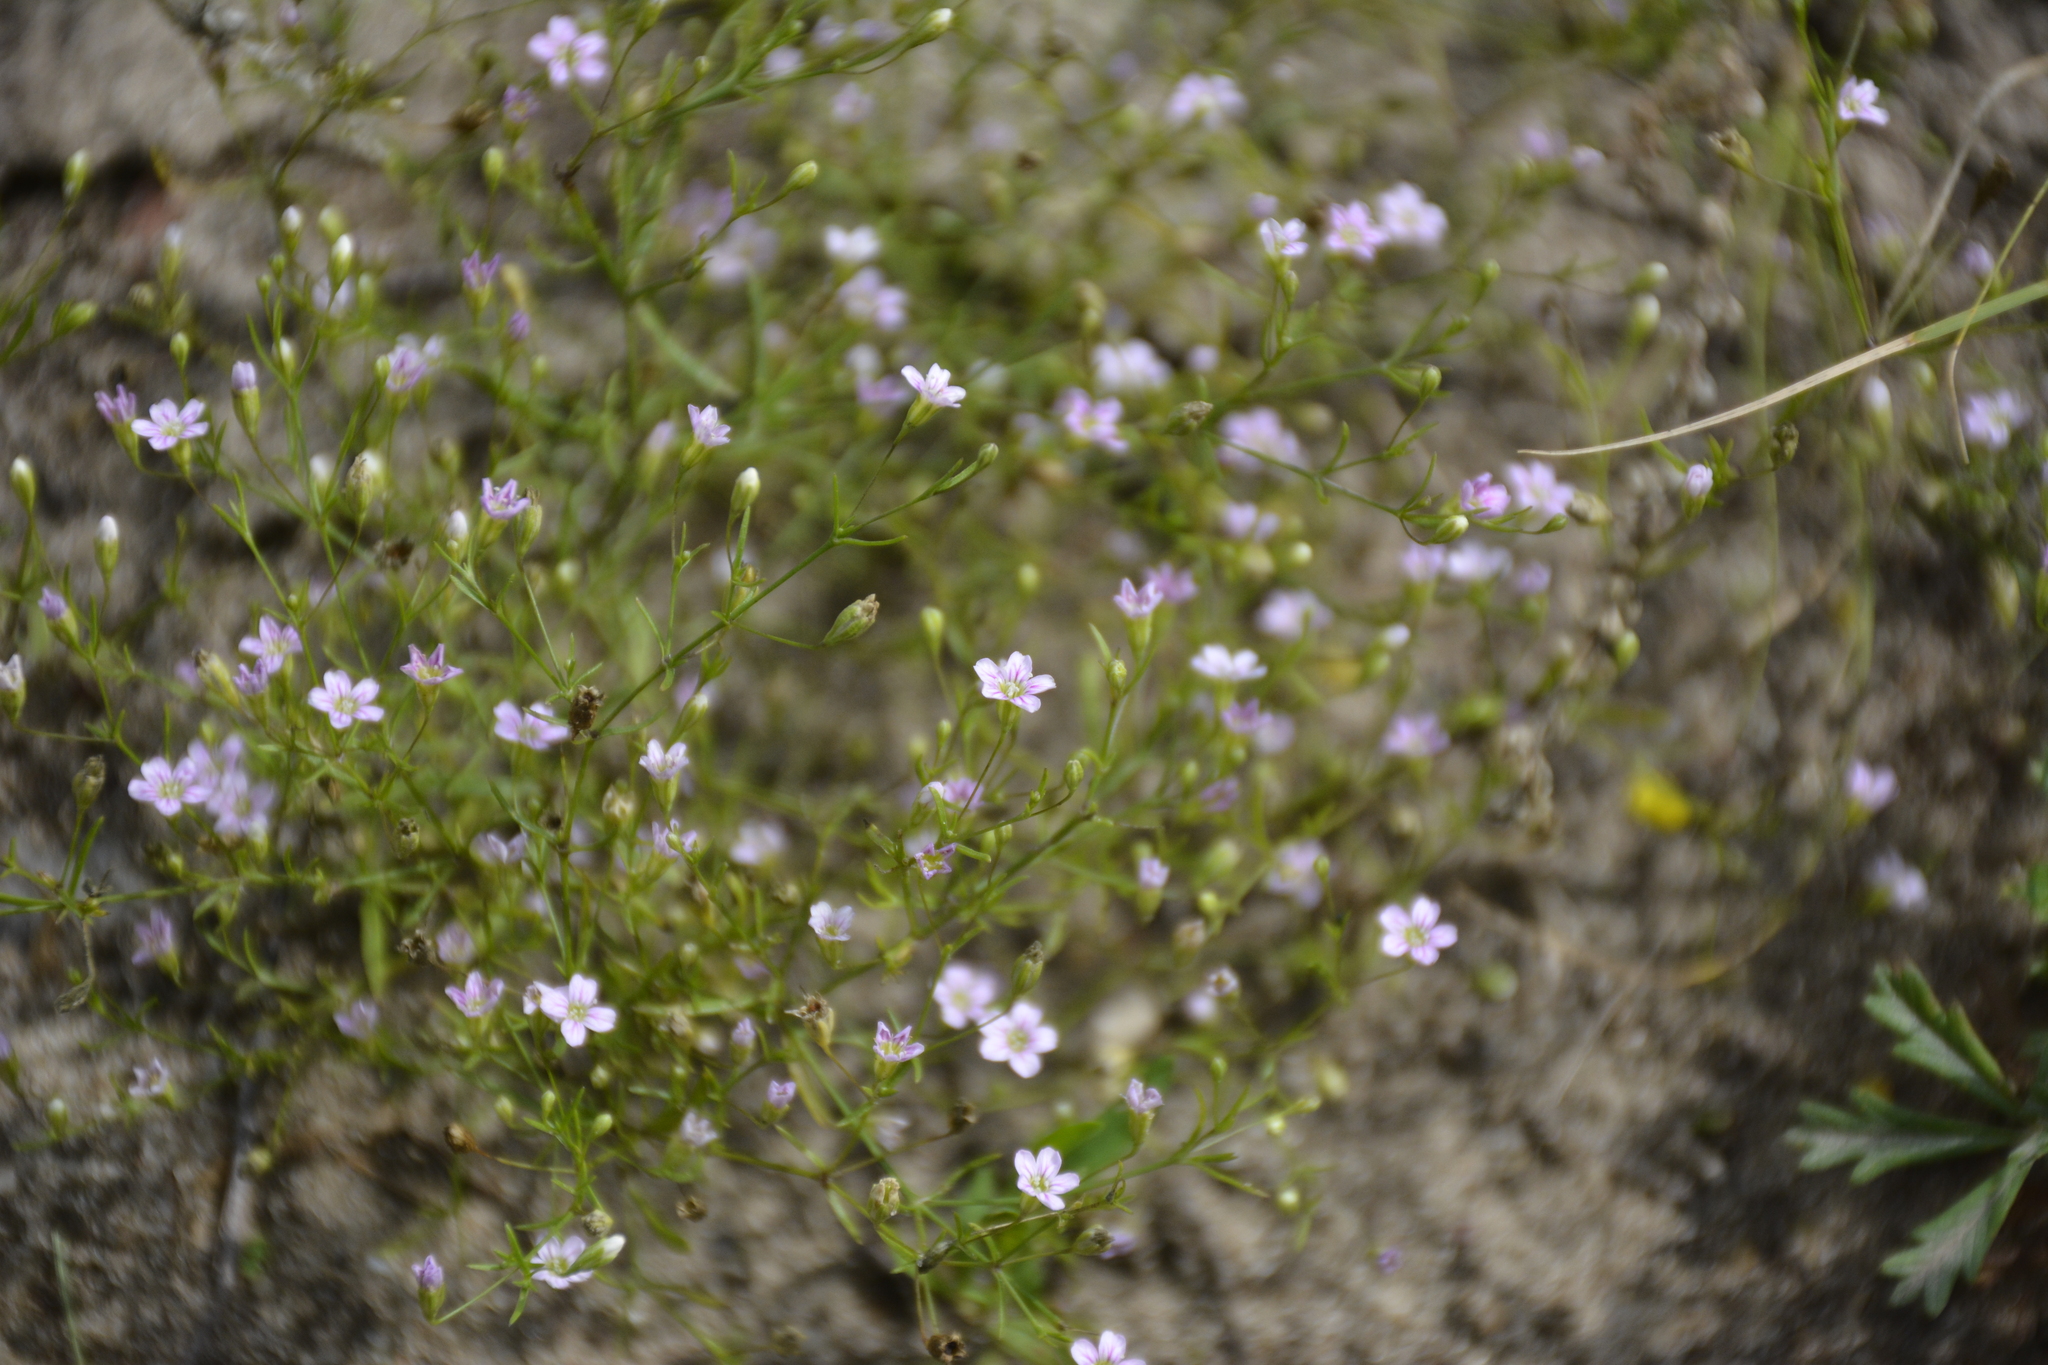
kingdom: Plantae
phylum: Tracheophyta
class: Magnoliopsida
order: Caryophyllales
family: Caryophyllaceae
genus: Psammophiliella
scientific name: Psammophiliella muralis
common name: Cushion baby's-breath
